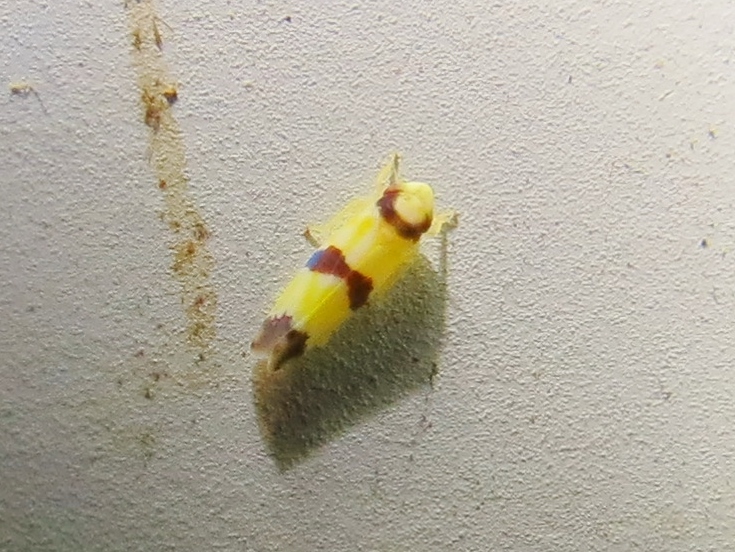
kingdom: Animalia
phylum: Arthropoda
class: Insecta
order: Hemiptera
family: Cicadellidae
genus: Erythroneura
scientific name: Erythroneura calycula
